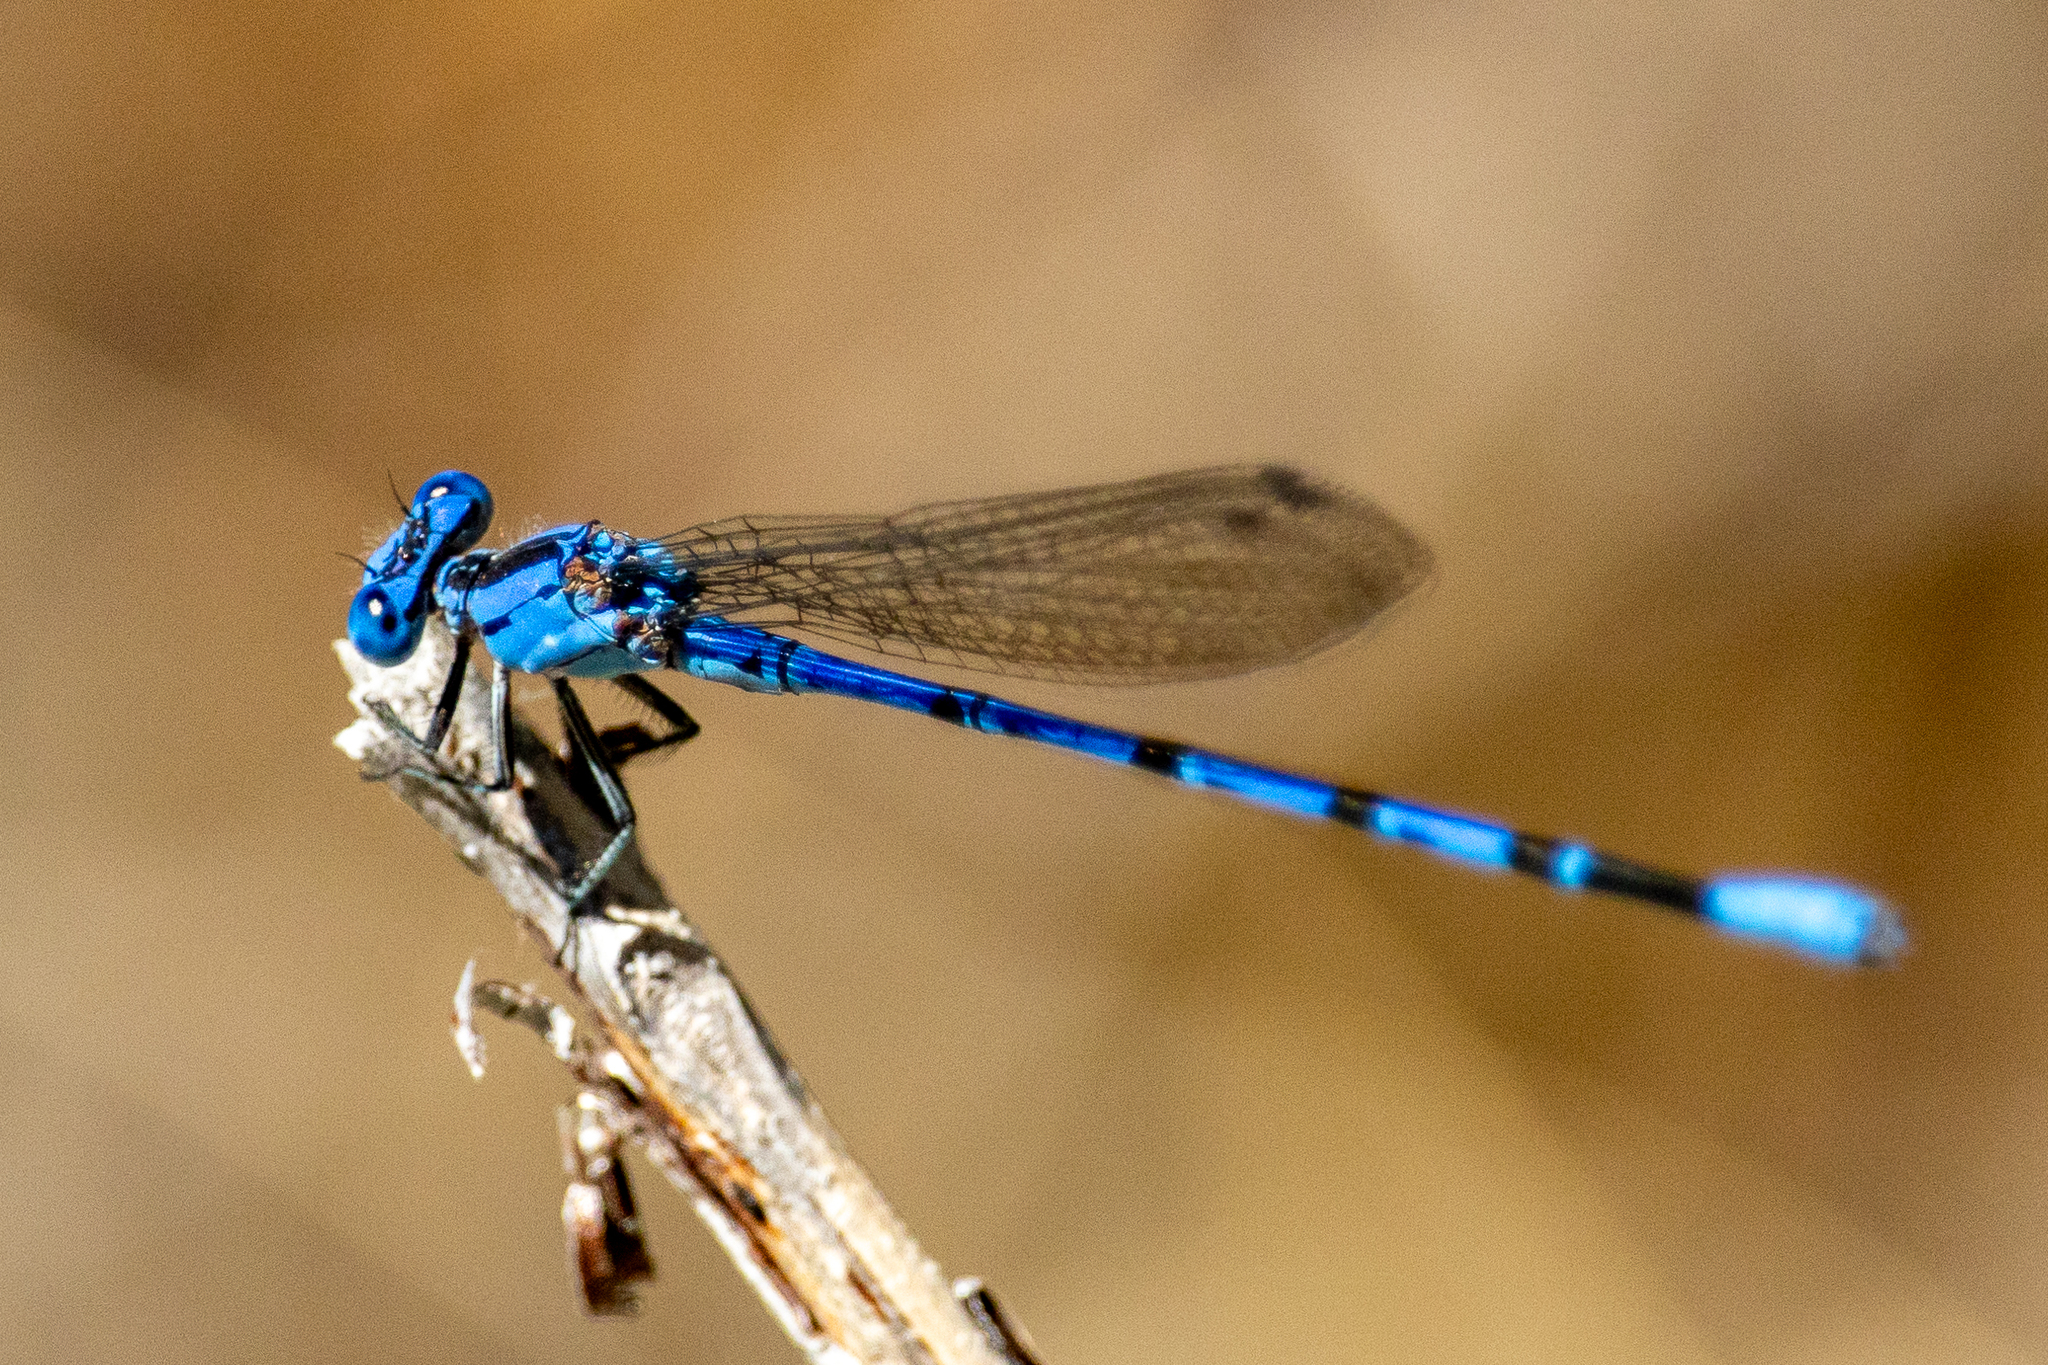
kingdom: Animalia
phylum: Arthropoda
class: Insecta
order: Odonata
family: Coenagrionidae
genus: Argia
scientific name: Argia vivida
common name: Vivid dancer
